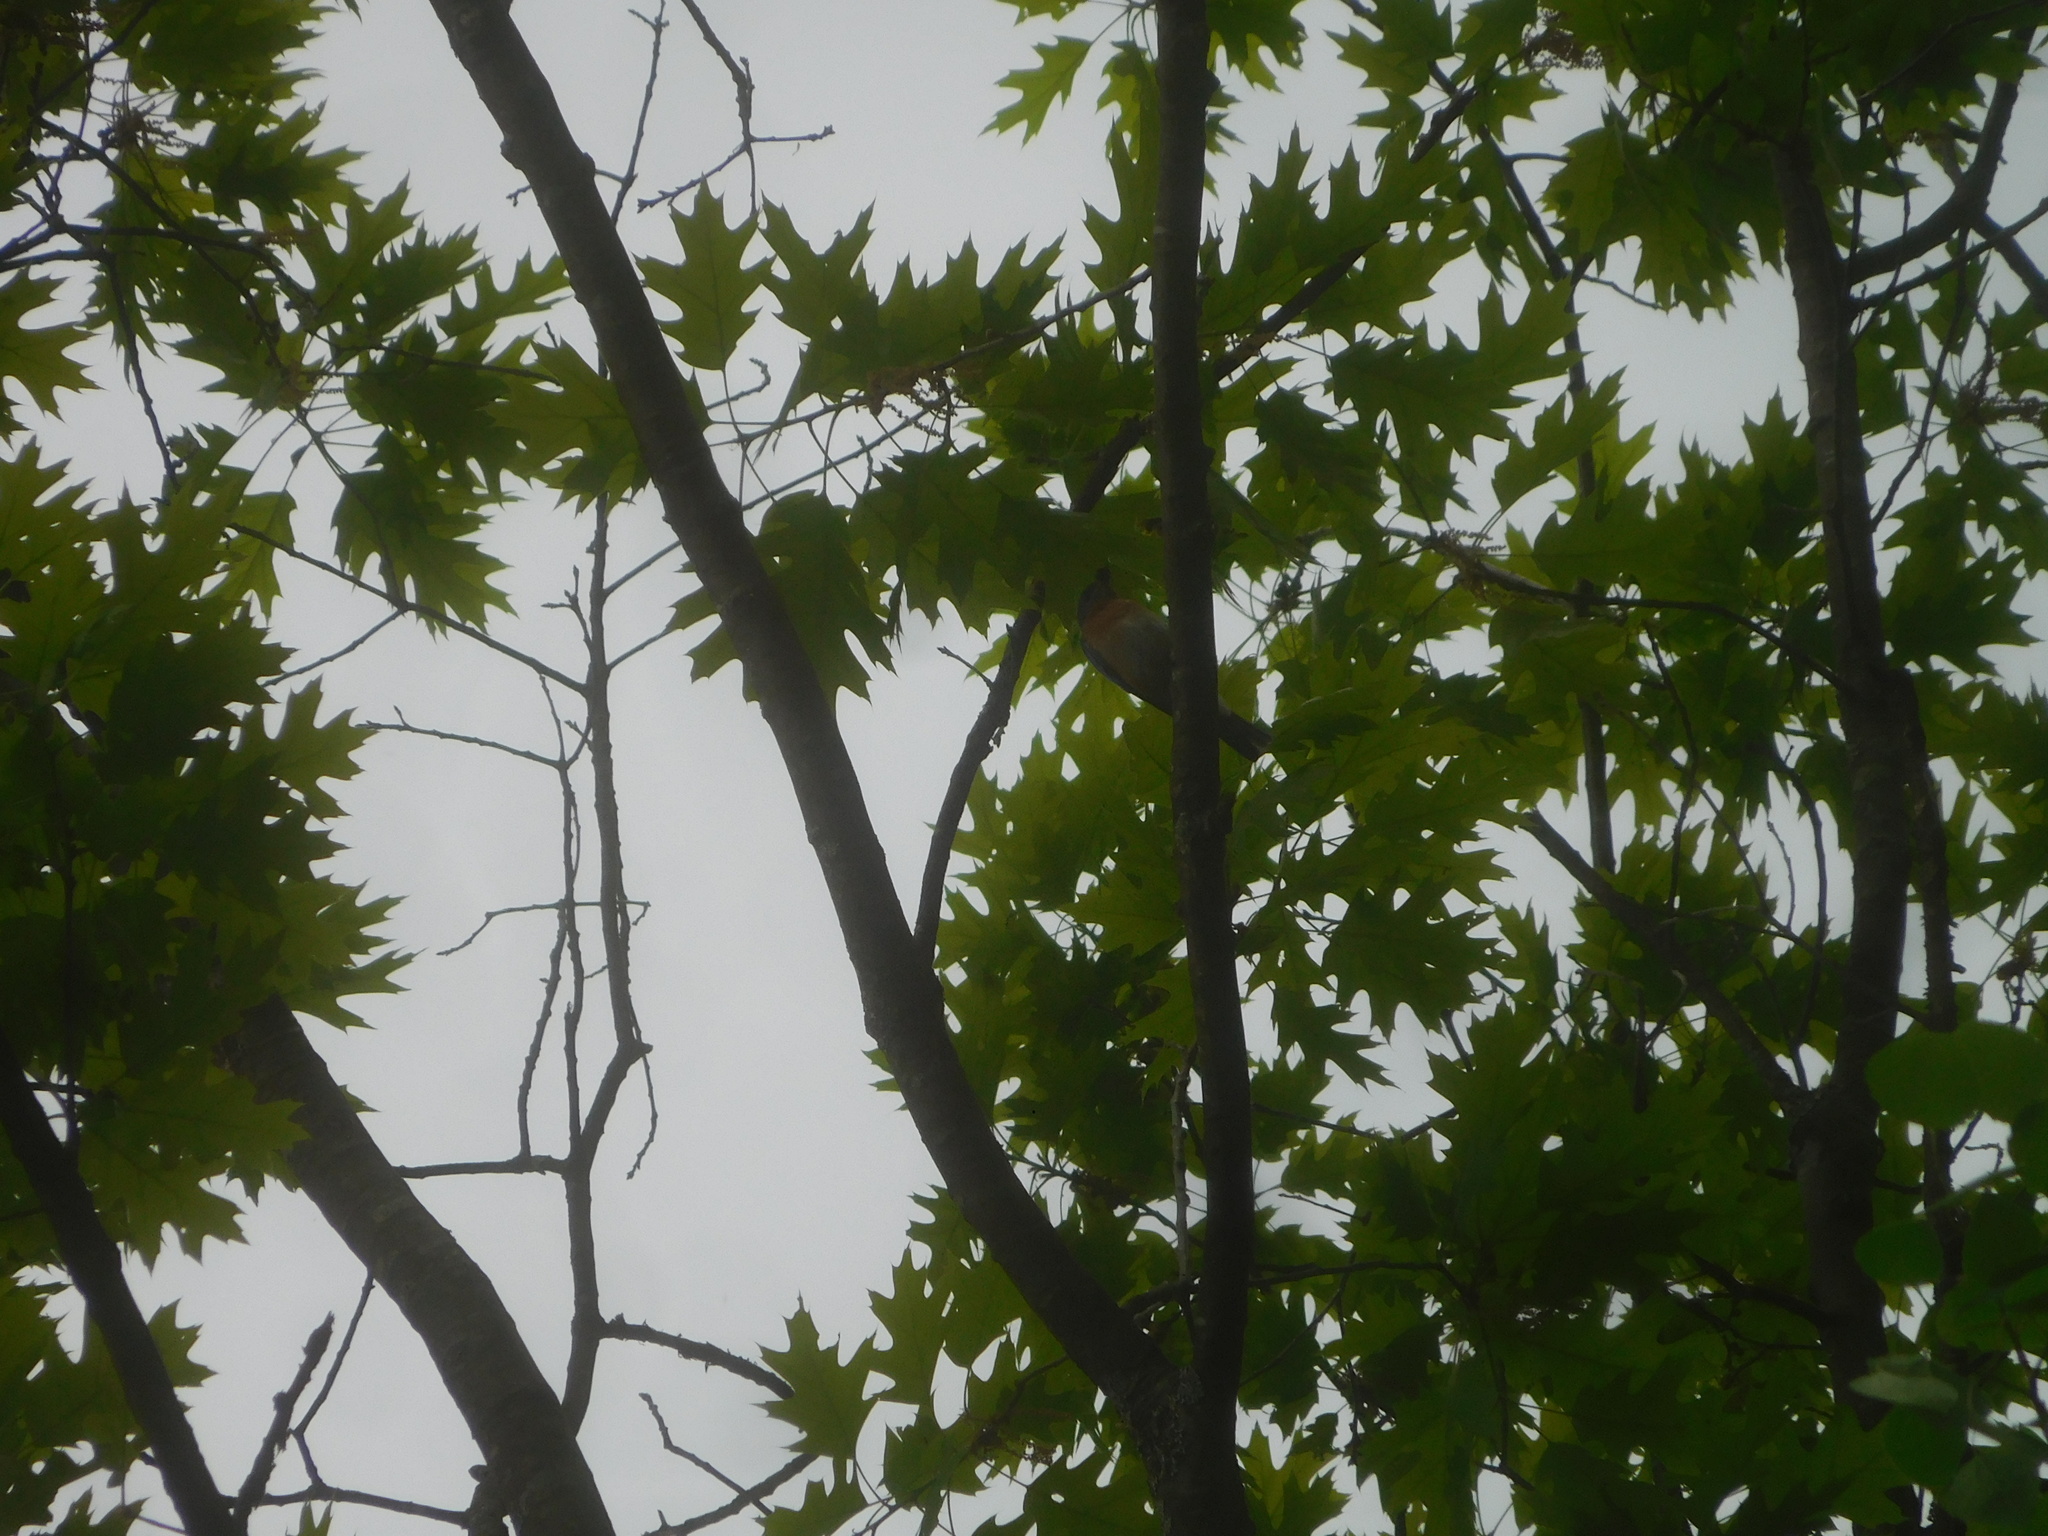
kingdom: Animalia
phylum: Chordata
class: Aves
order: Passeriformes
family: Turdidae
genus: Sialia
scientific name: Sialia sialis
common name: Eastern bluebird
